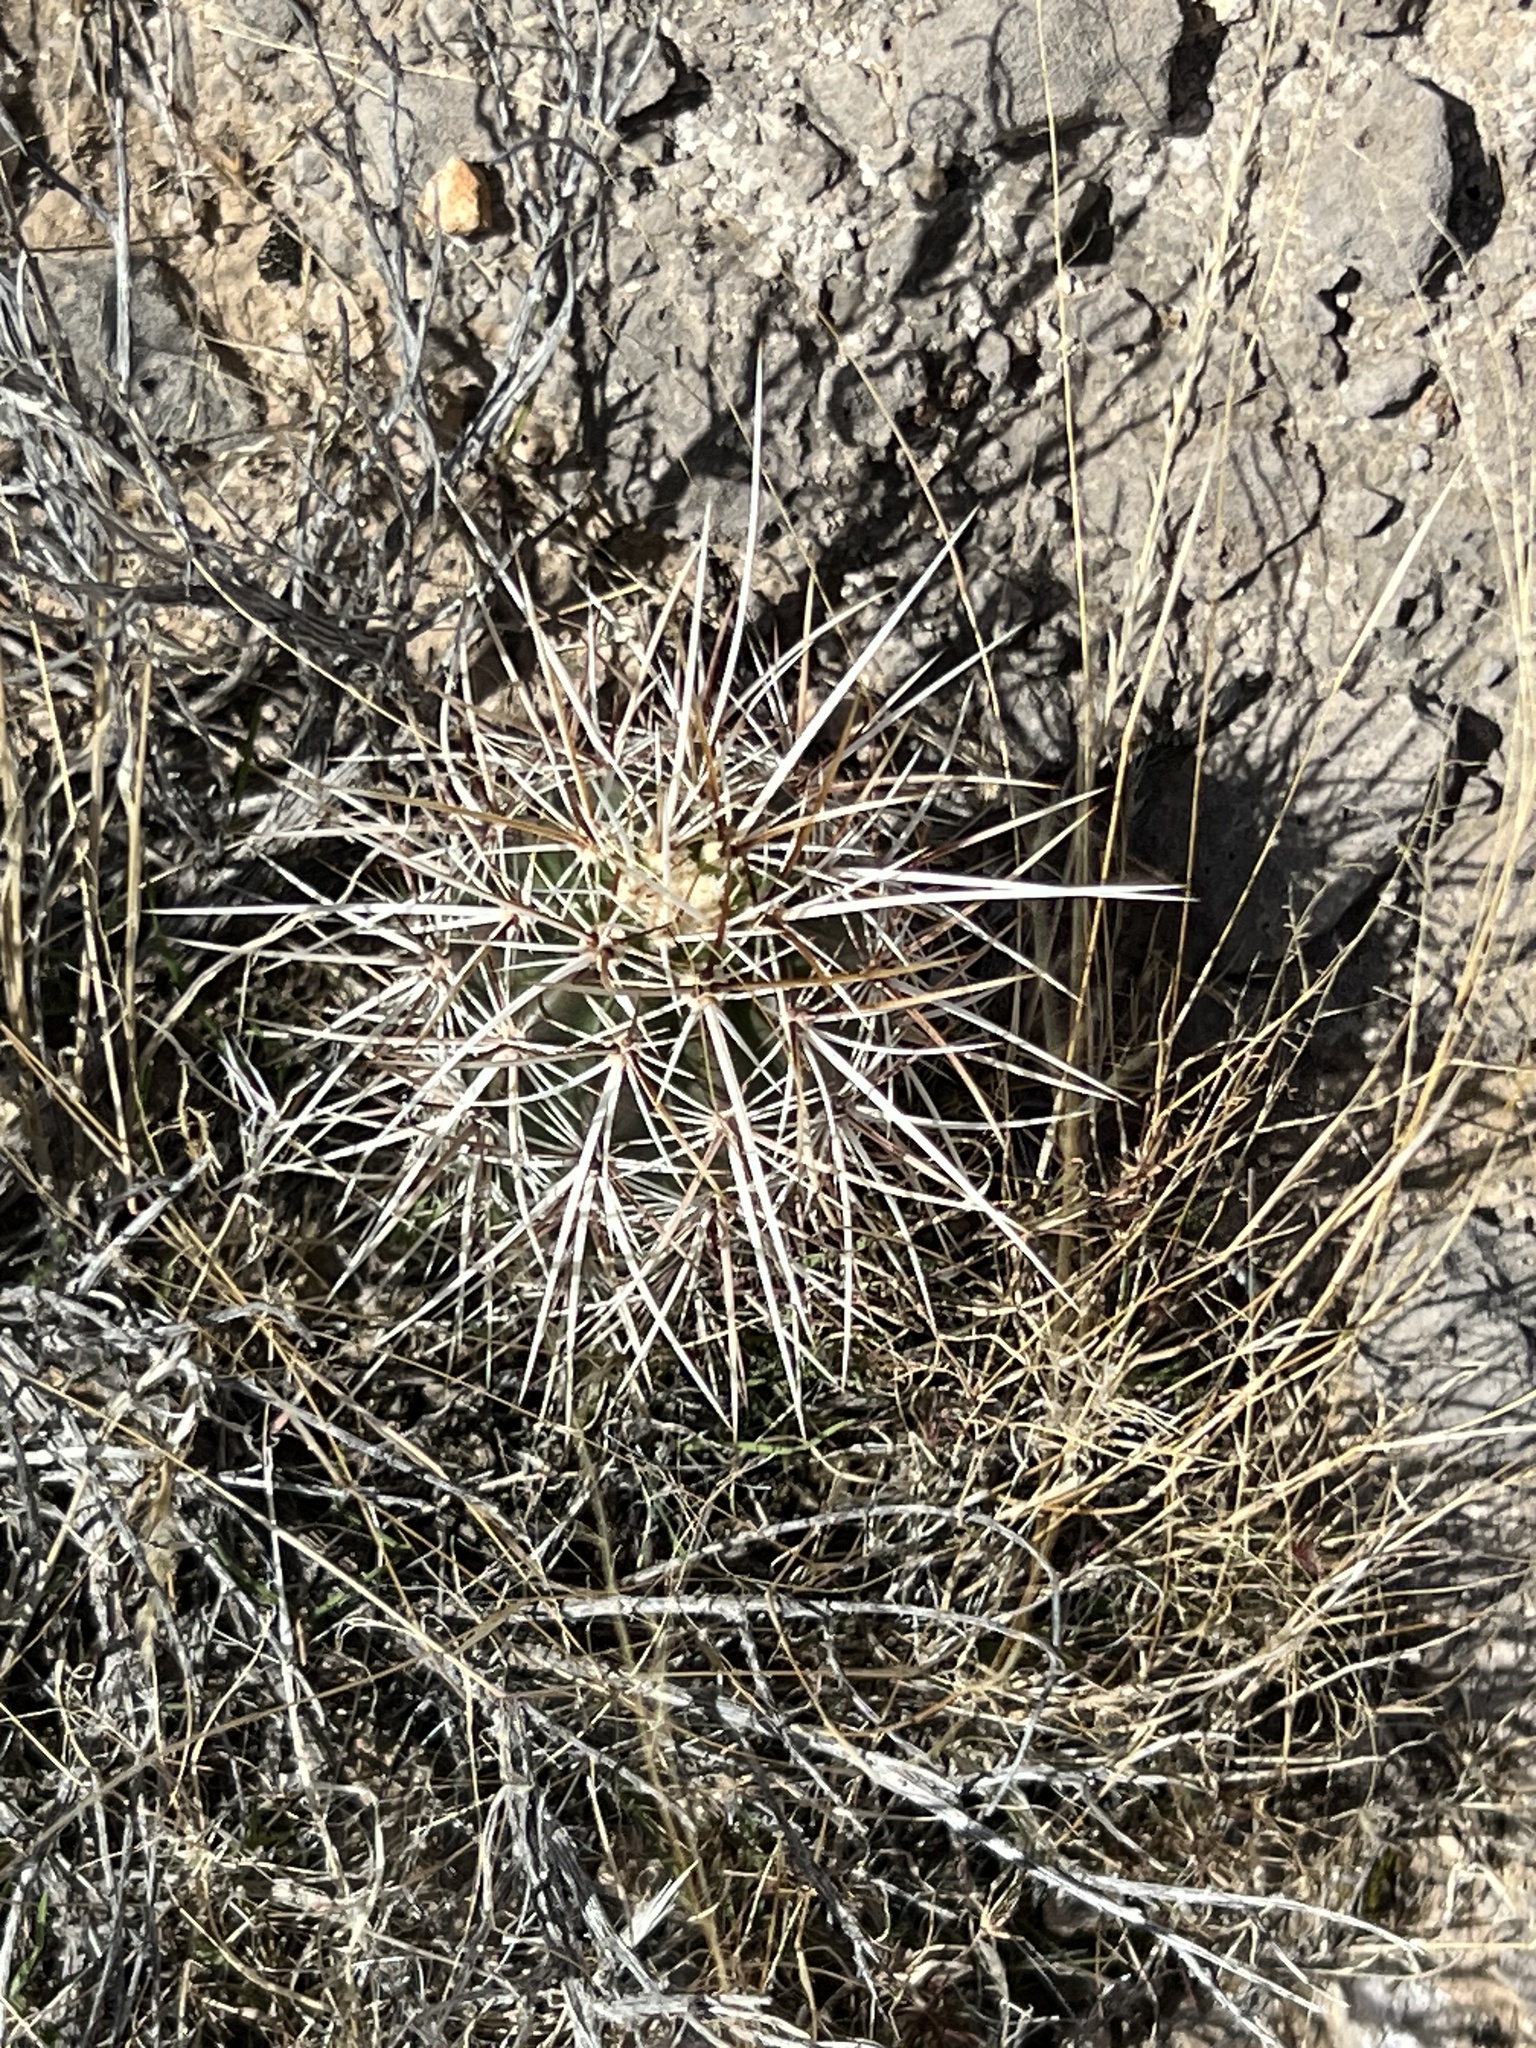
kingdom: Plantae
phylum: Tracheophyta
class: Magnoliopsida
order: Caryophyllales
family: Cactaceae
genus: Echinocereus
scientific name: Echinocereus engelmannii
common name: Engelmann's hedgehog cactus
